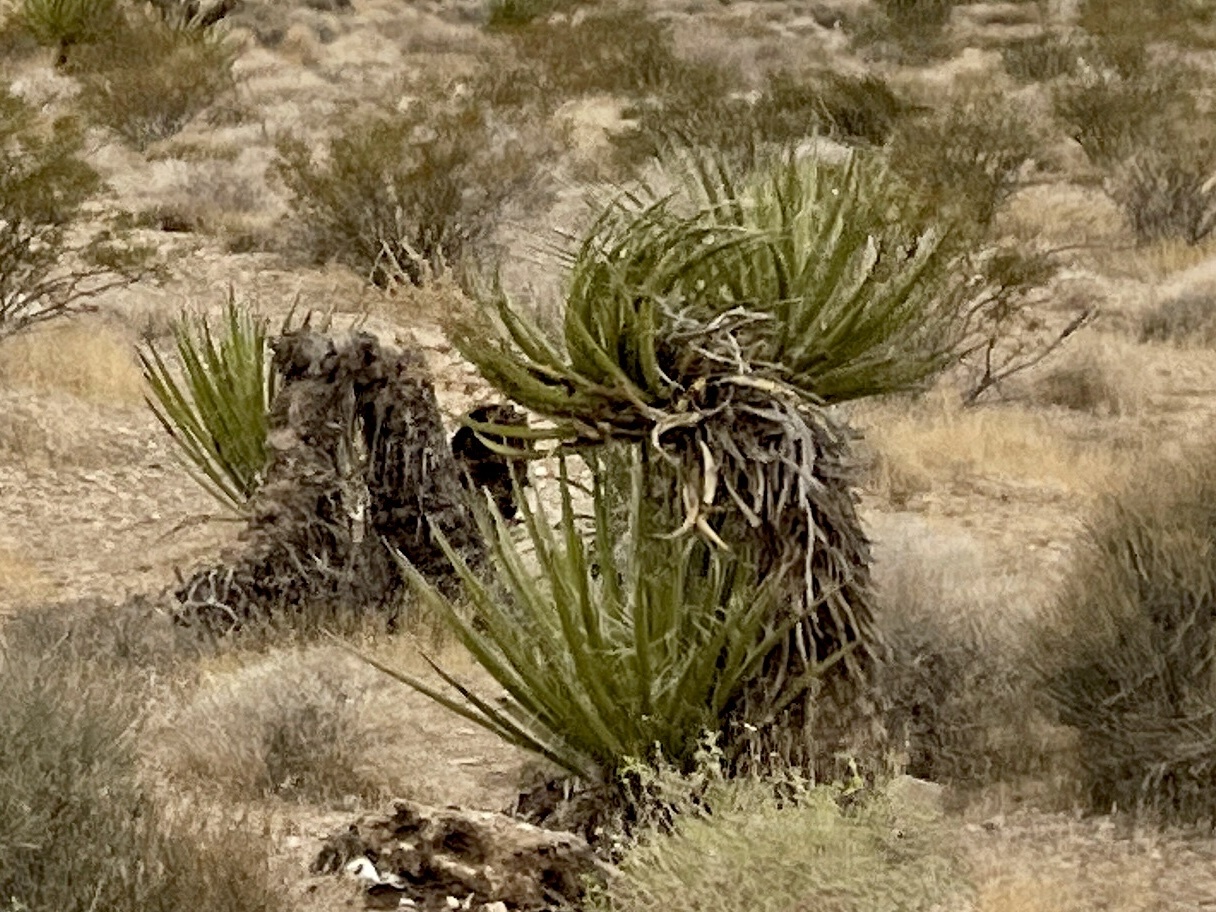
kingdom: Plantae
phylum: Tracheophyta
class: Liliopsida
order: Asparagales
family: Asparagaceae
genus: Yucca
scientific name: Yucca schidigera
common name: Mojave yucca
